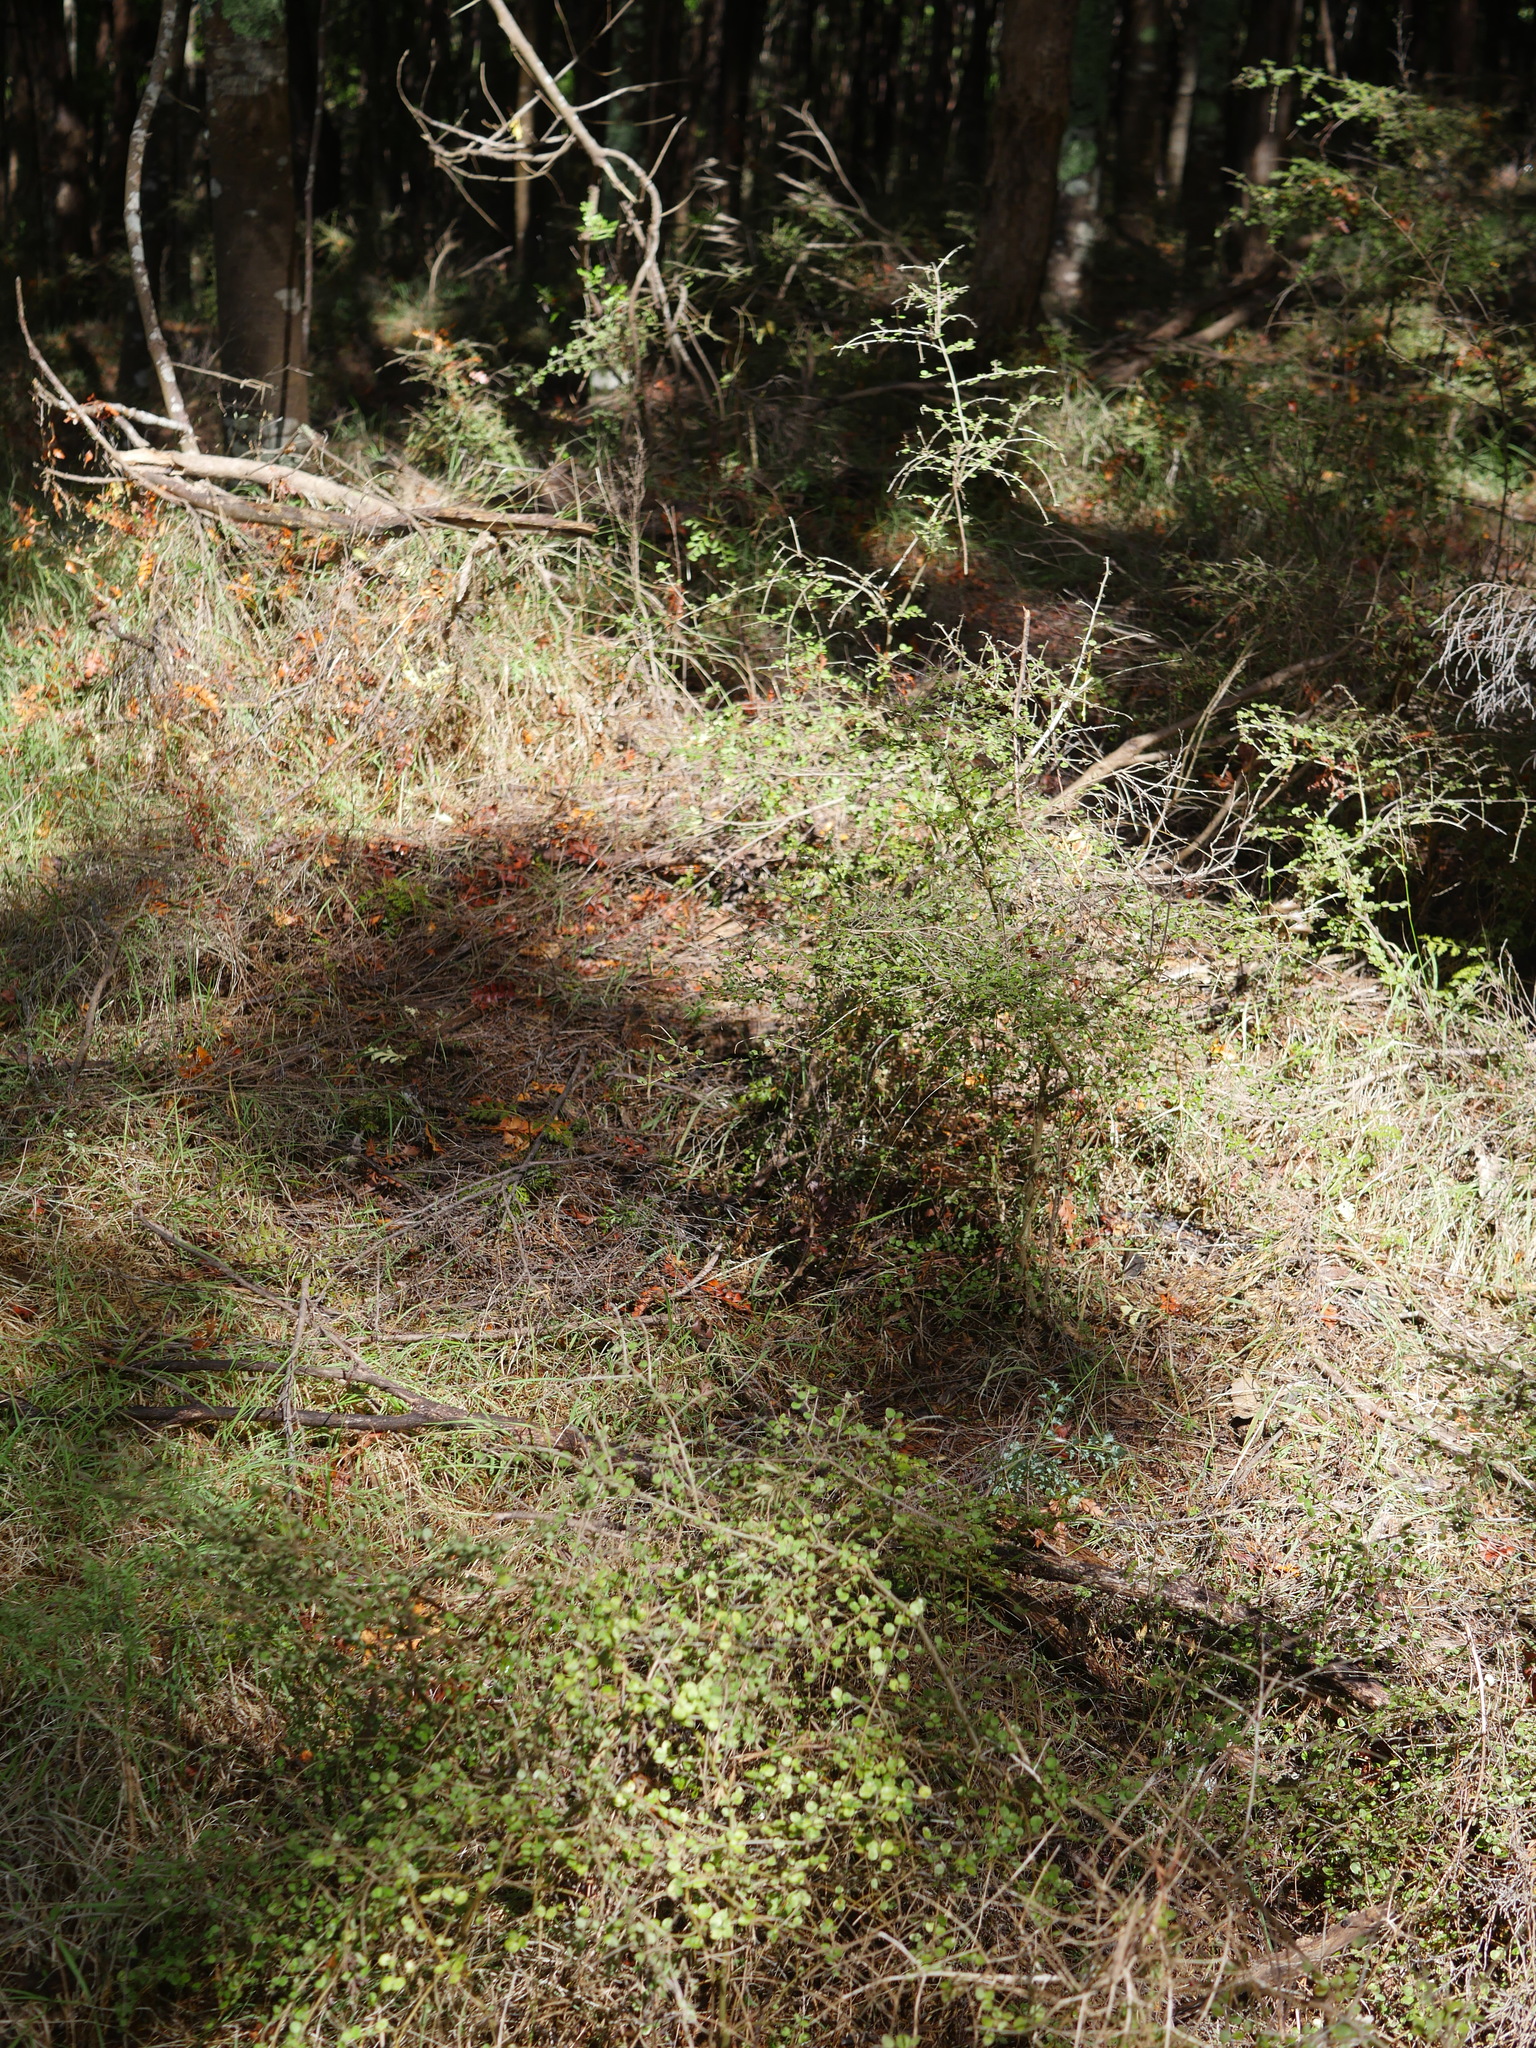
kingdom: Plantae
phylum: Tracheophyta
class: Magnoliopsida
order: Gentianales
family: Rubiaceae
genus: Coprosma
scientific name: Coprosma rhamnoides
